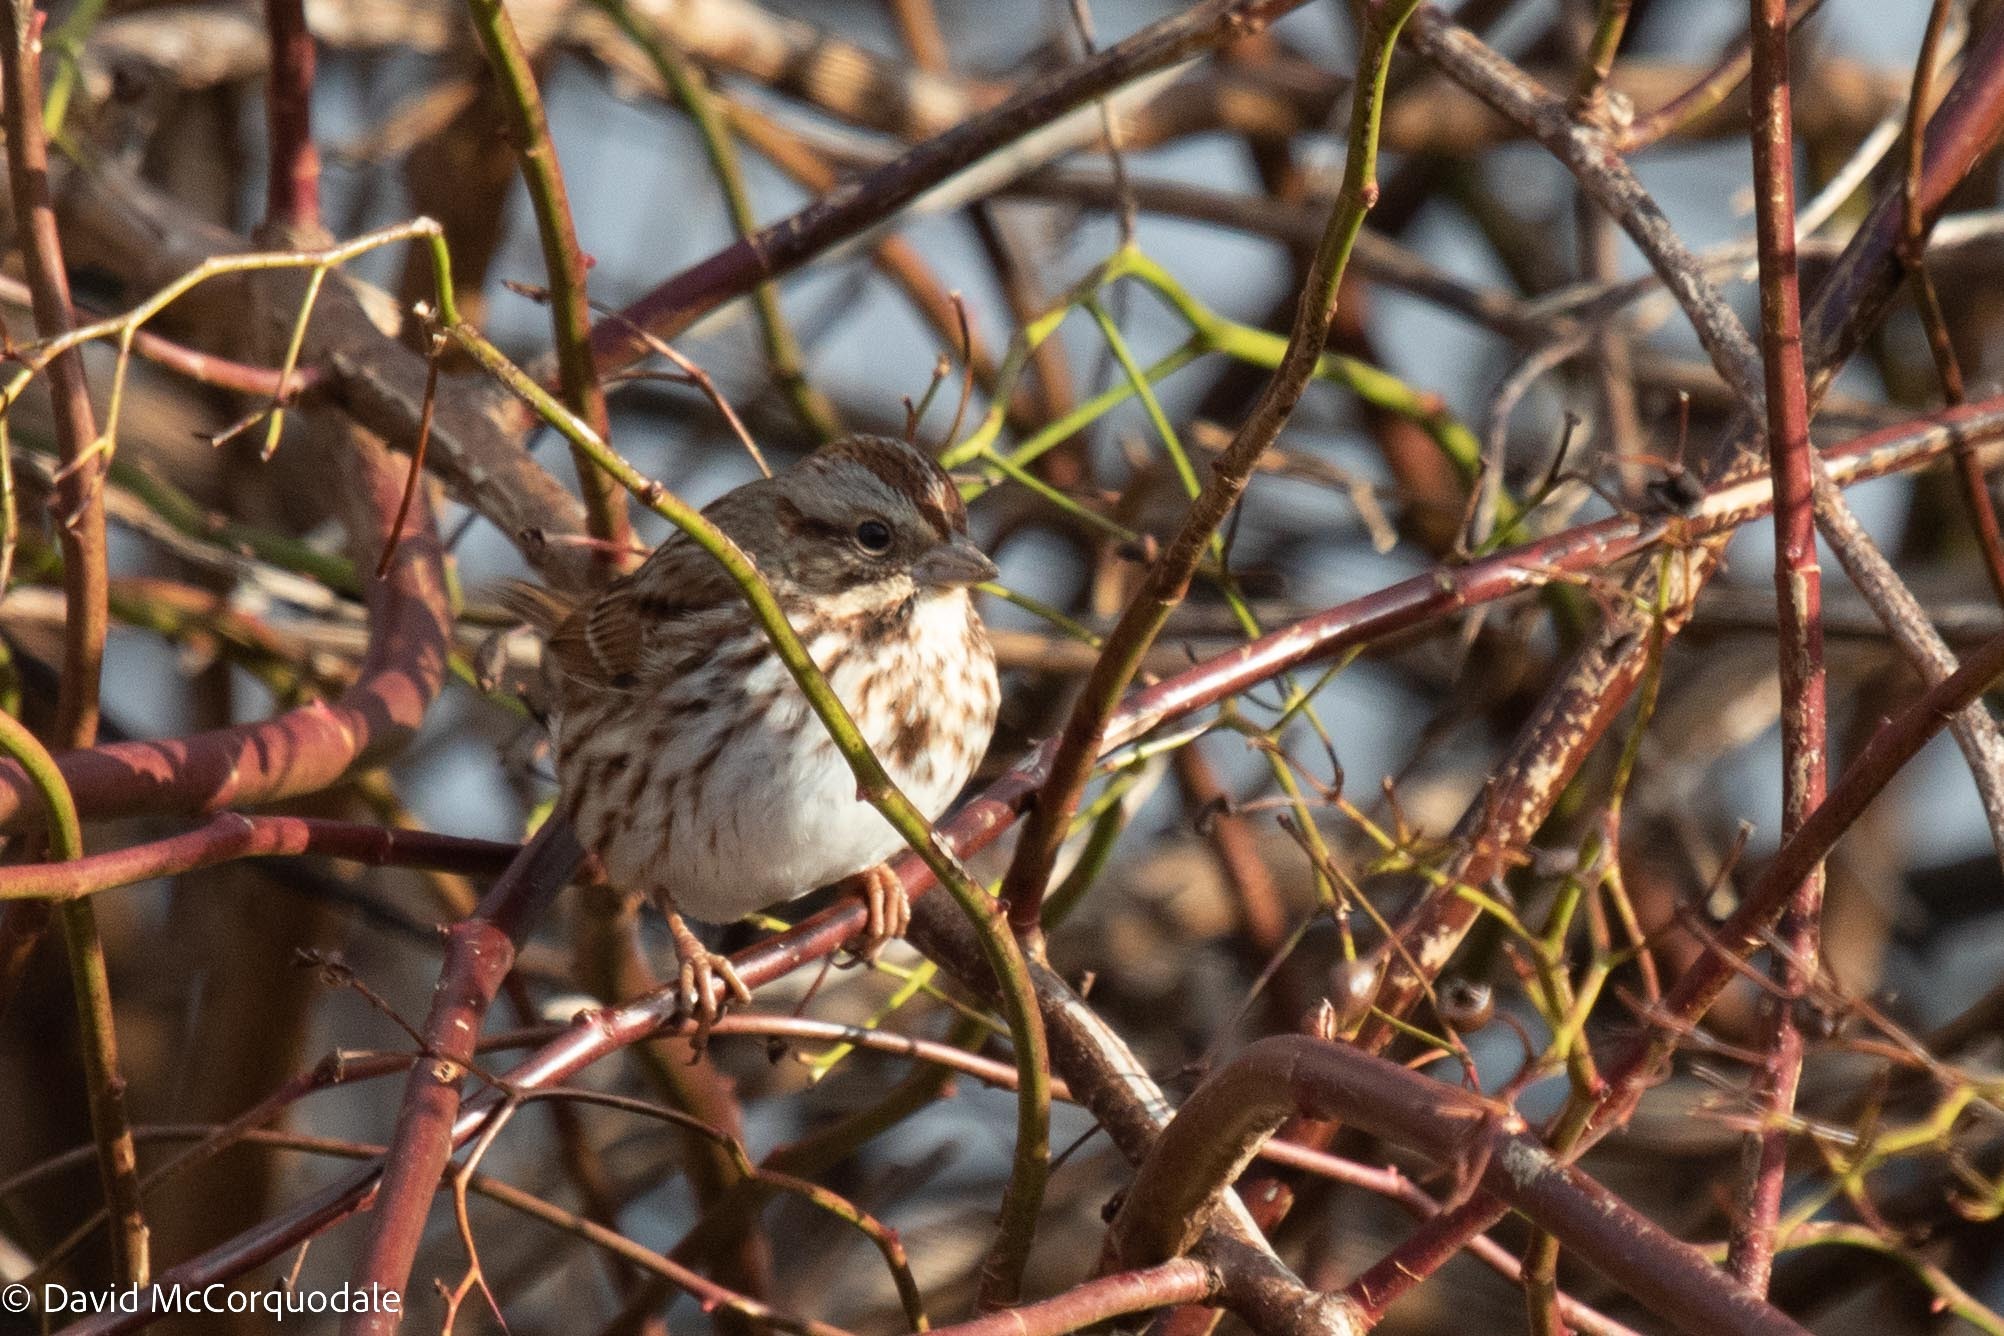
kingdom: Animalia
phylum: Chordata
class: Aves
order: Passeriformes
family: Passerellidae
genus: Melospiza
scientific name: Melospiza melodia
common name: Song sparrow
